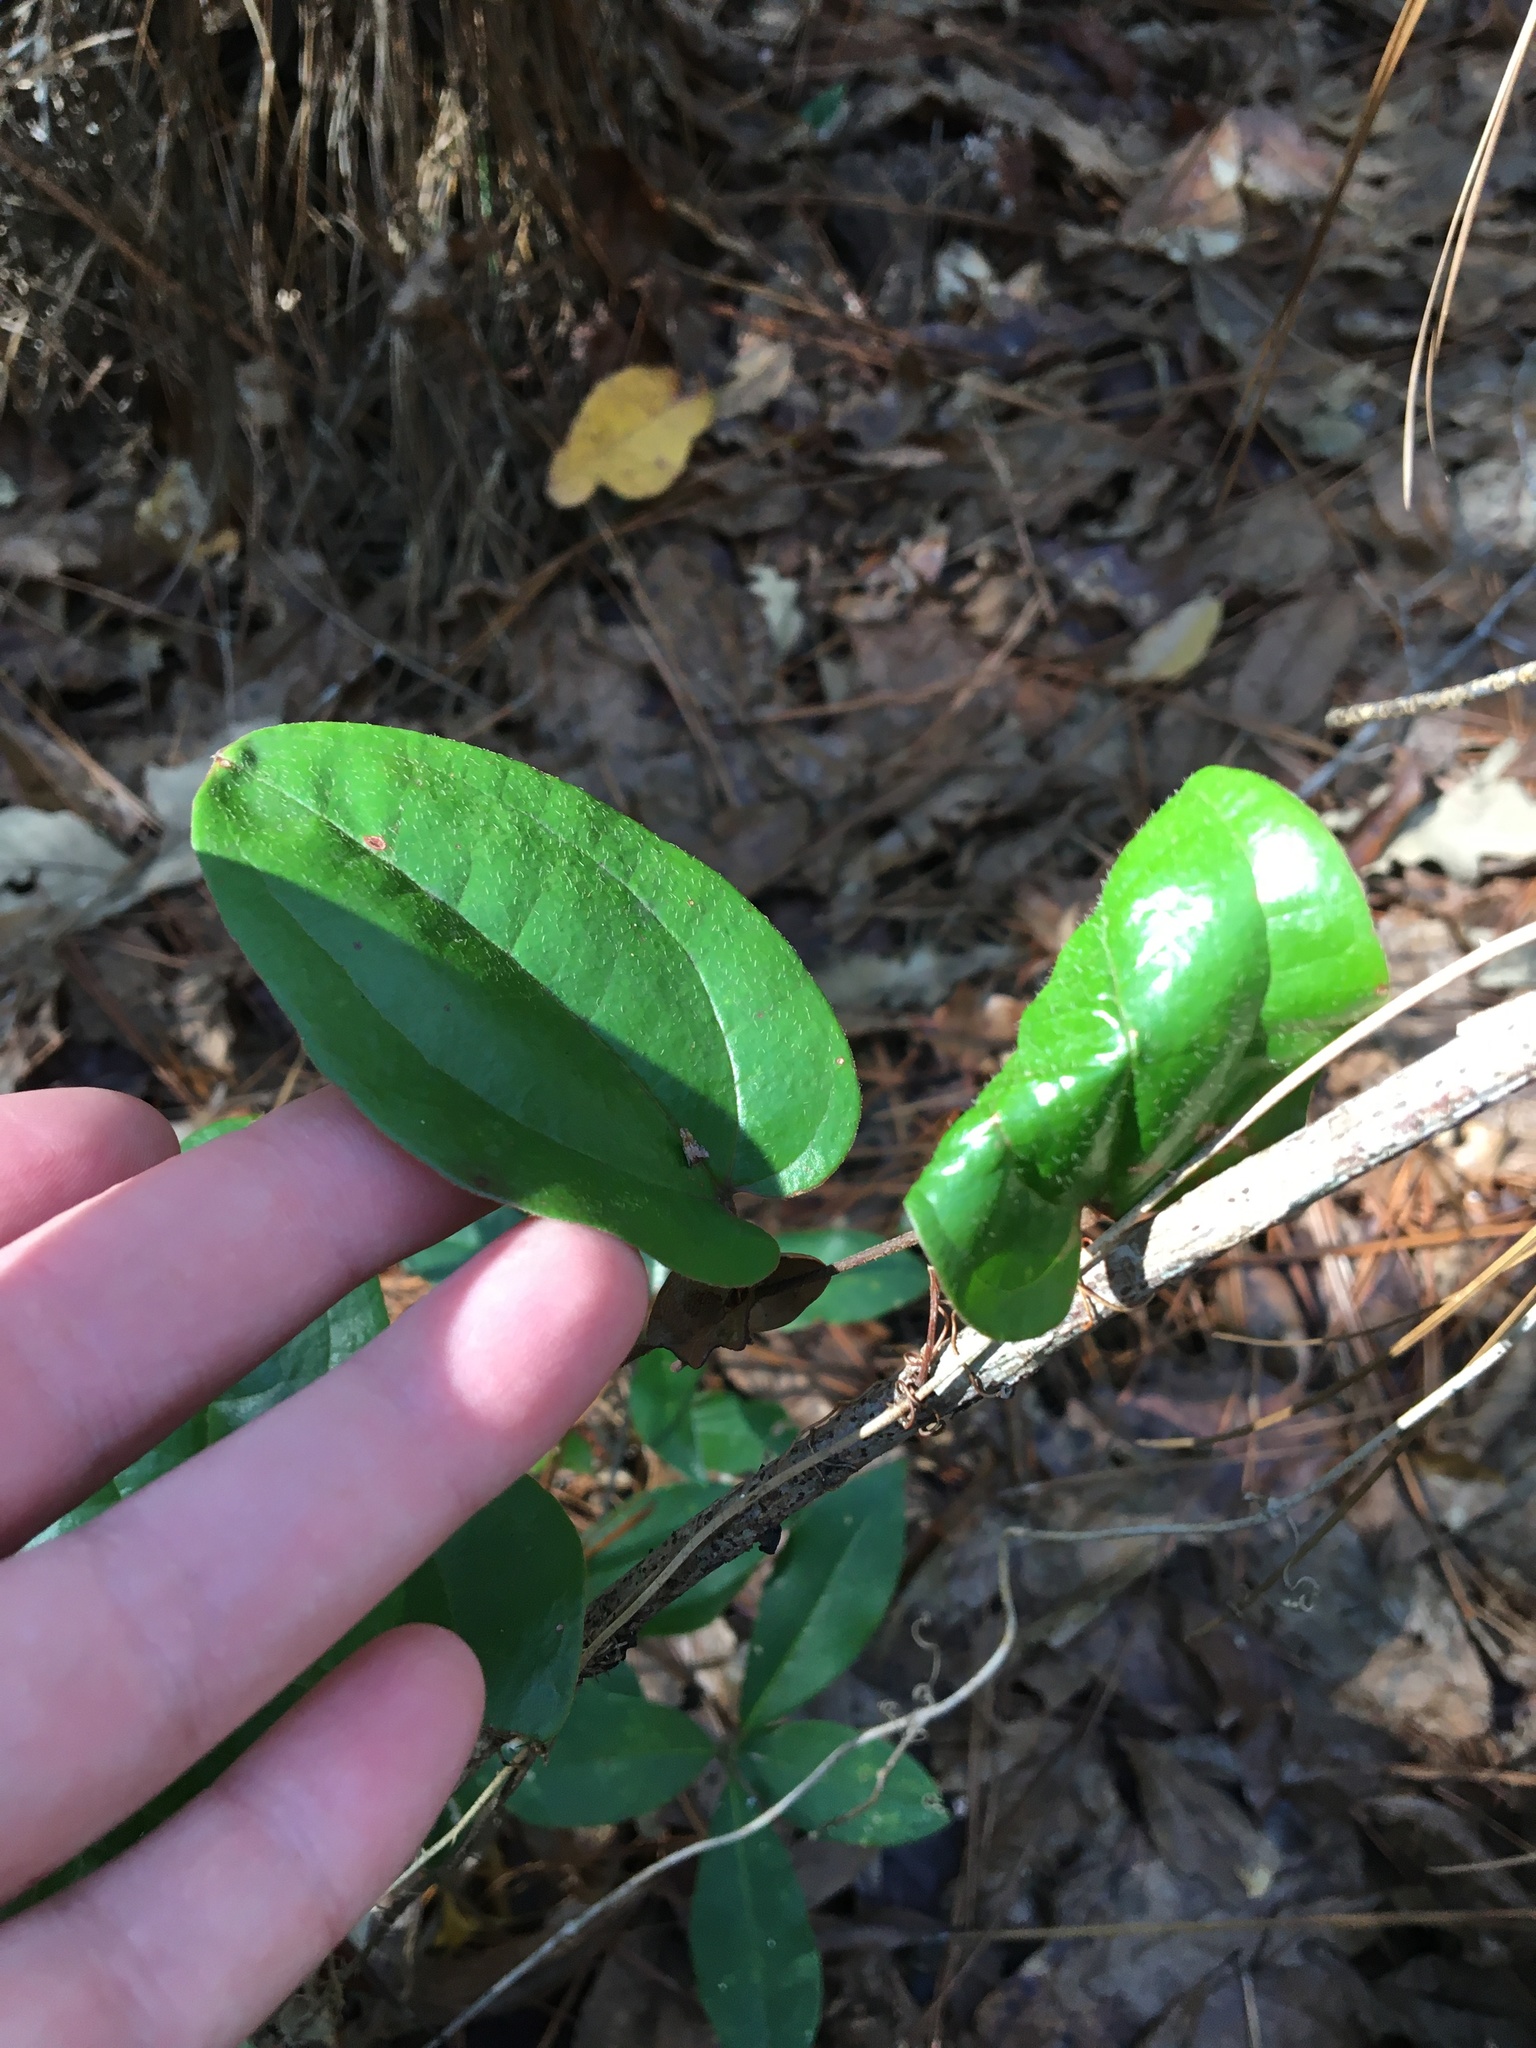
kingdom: Plantae
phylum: Tracheophyta
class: Liliopsida
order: Liliales
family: Smilacaceae
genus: Smilax
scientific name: Smilax pumila
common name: Sarsaparilla-vine
